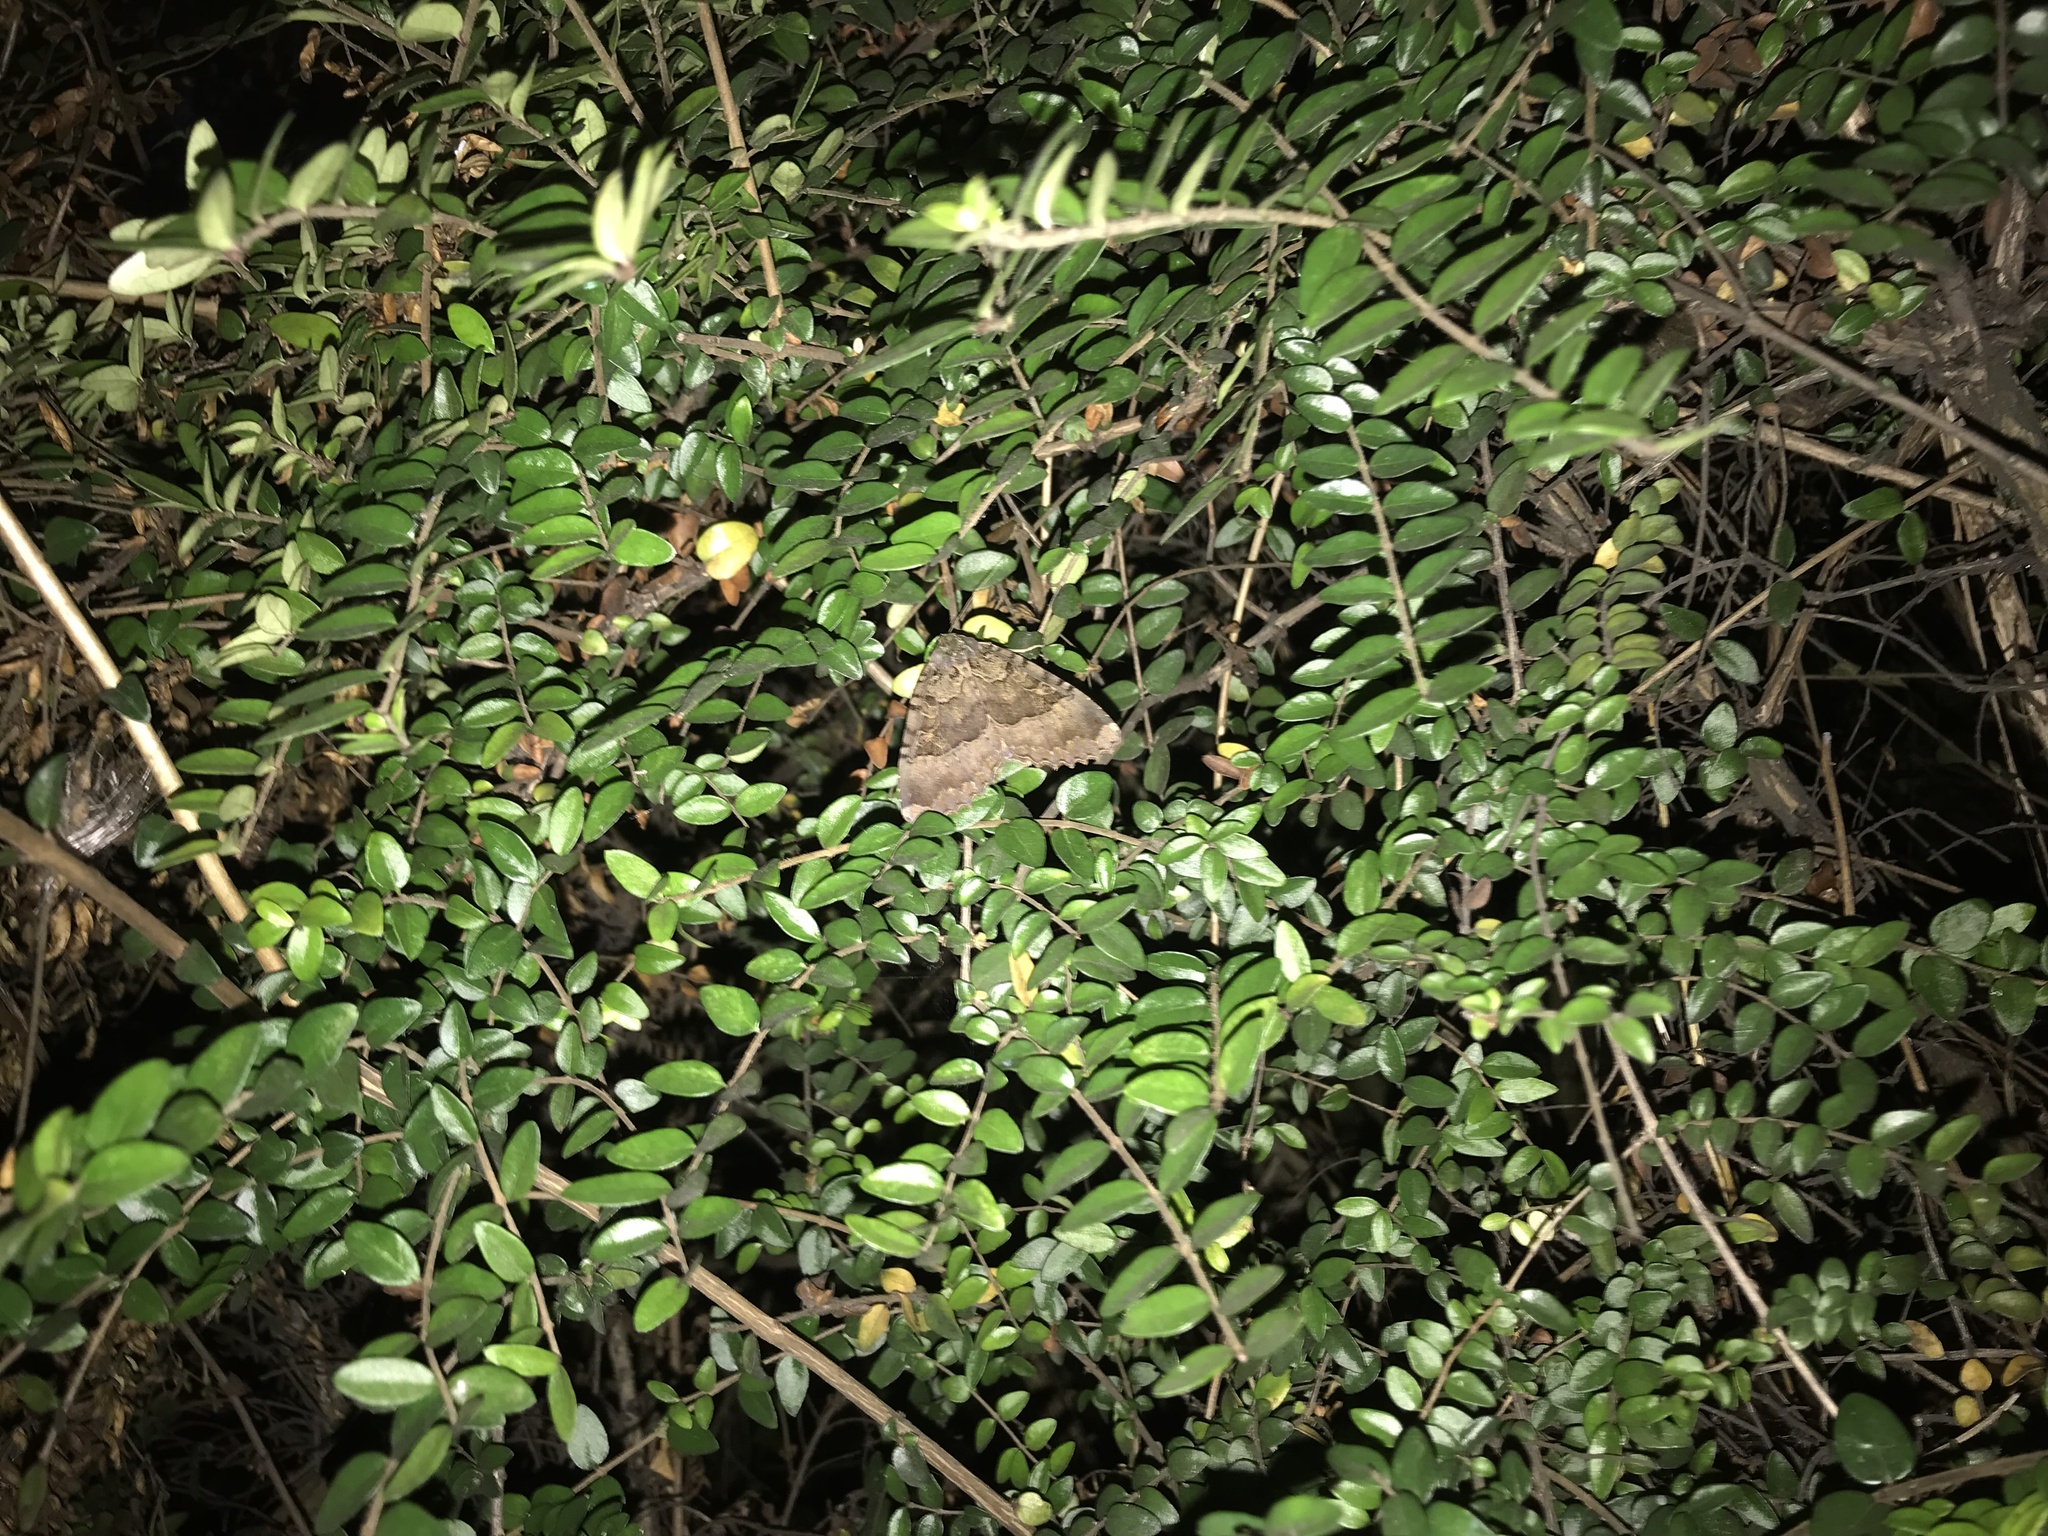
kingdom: Animalia
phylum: Arthropoda
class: Insecta
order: Lepidoptera
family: Noctuidae
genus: Mormo
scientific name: Mormo maura
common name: Old lady
